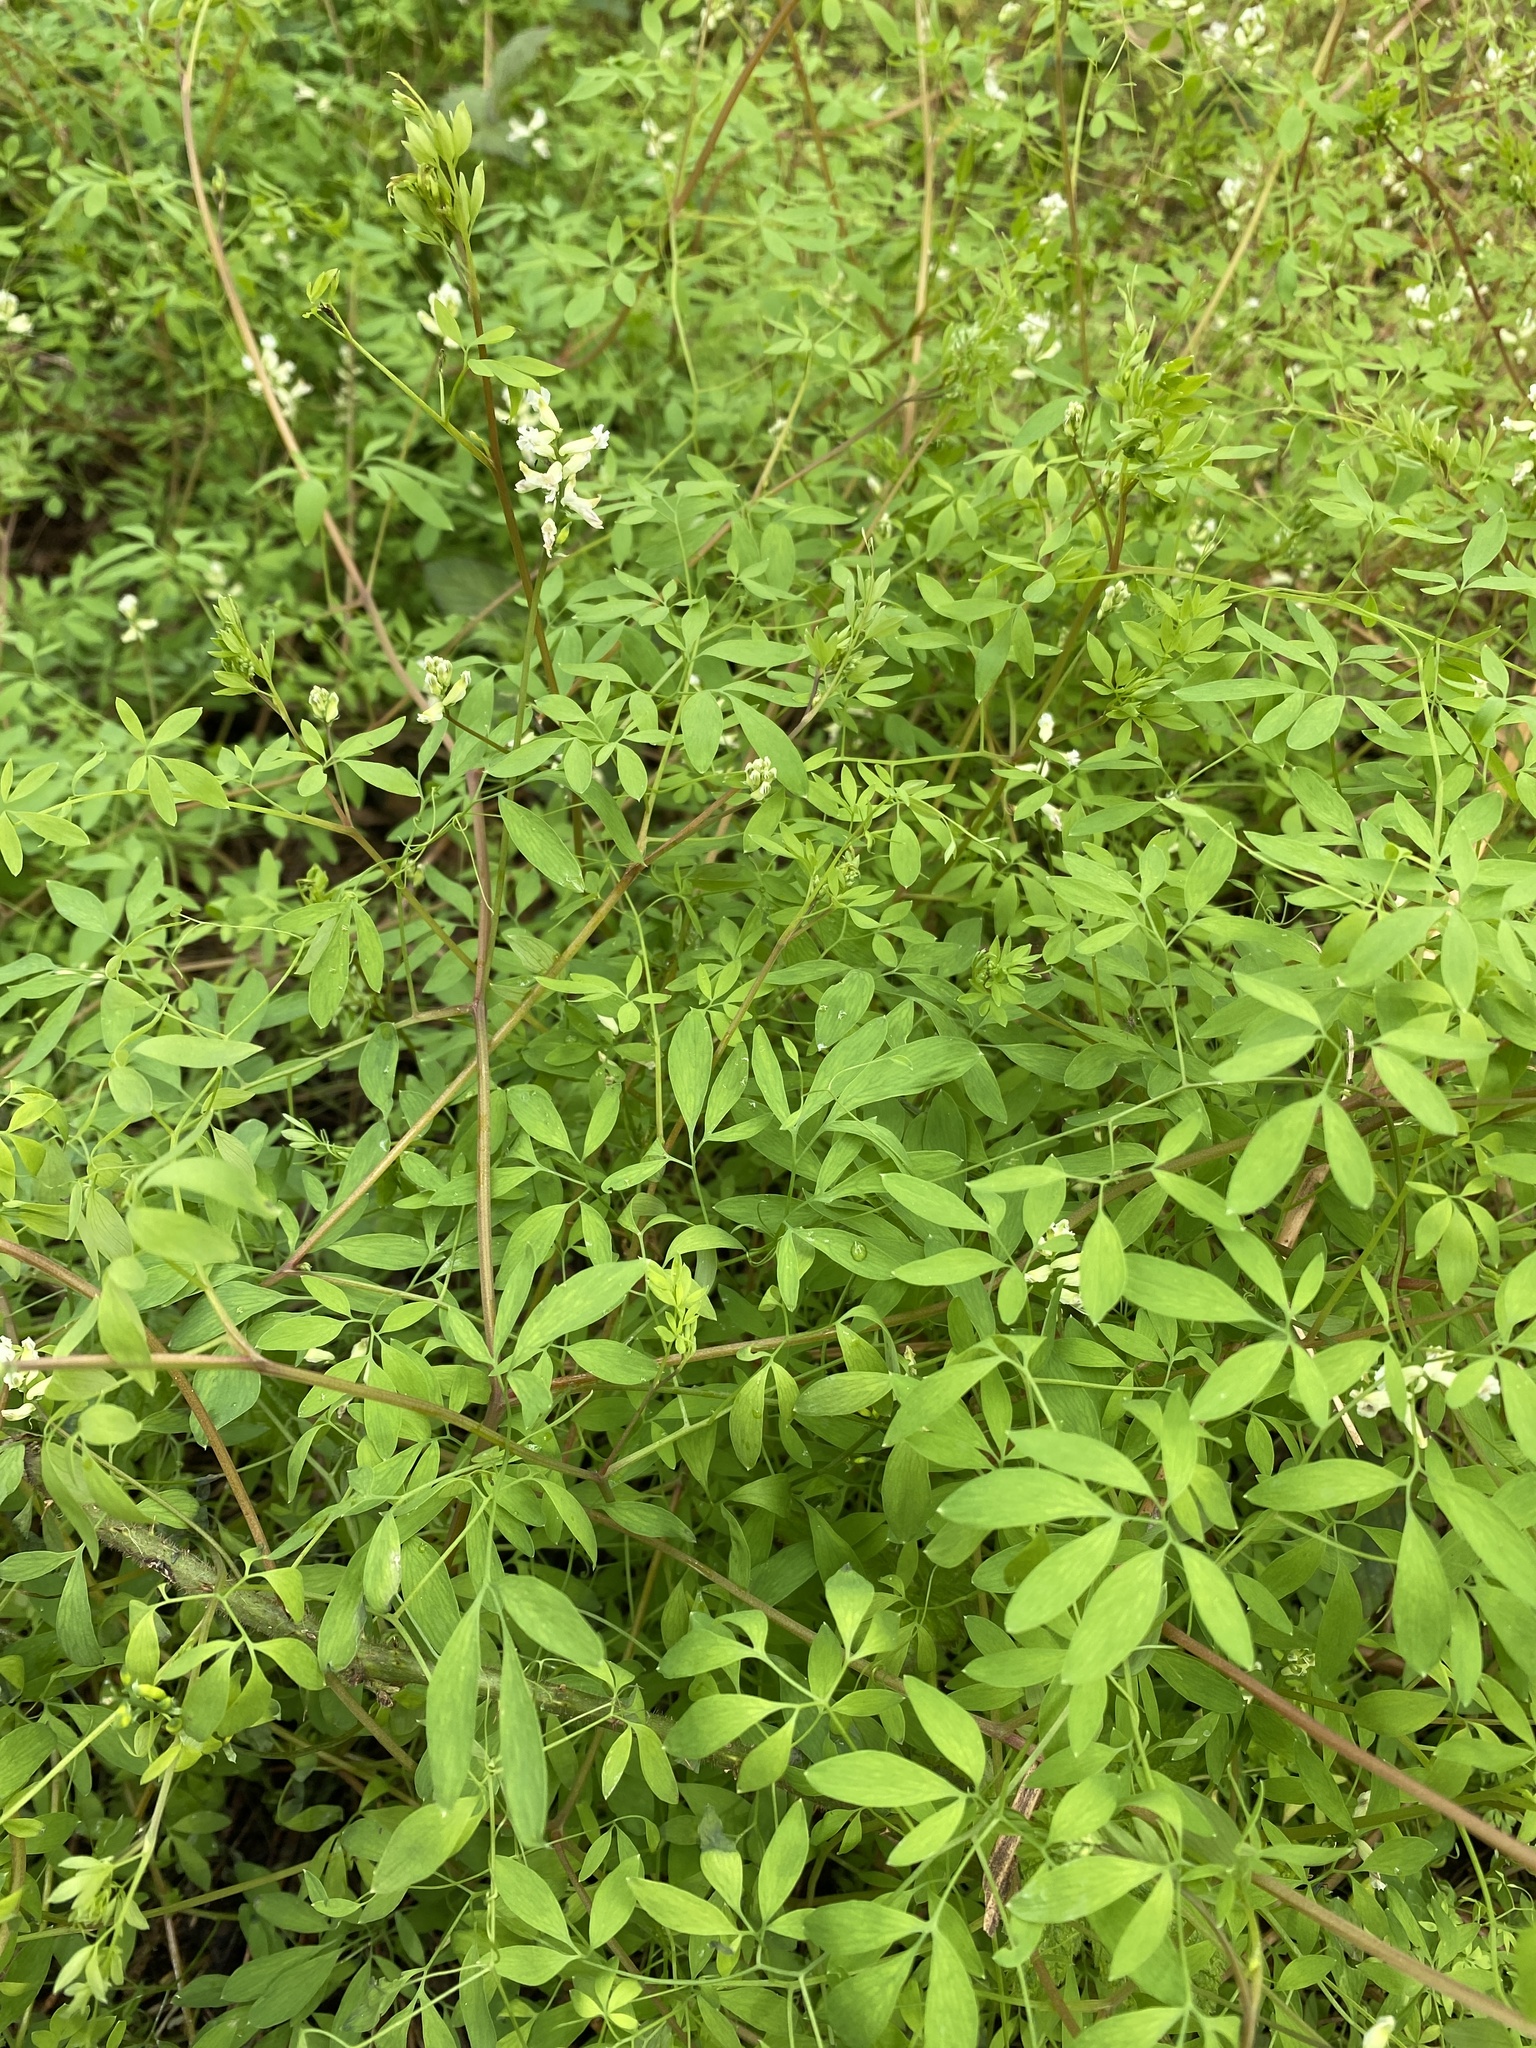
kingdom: Plantae
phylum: Tracheophyta
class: Magnoliopsida
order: Ranunculales
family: Papaveraceae
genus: Ceratocapnos
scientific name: Ceratocapnos claviculata
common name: Climbing corydalis
